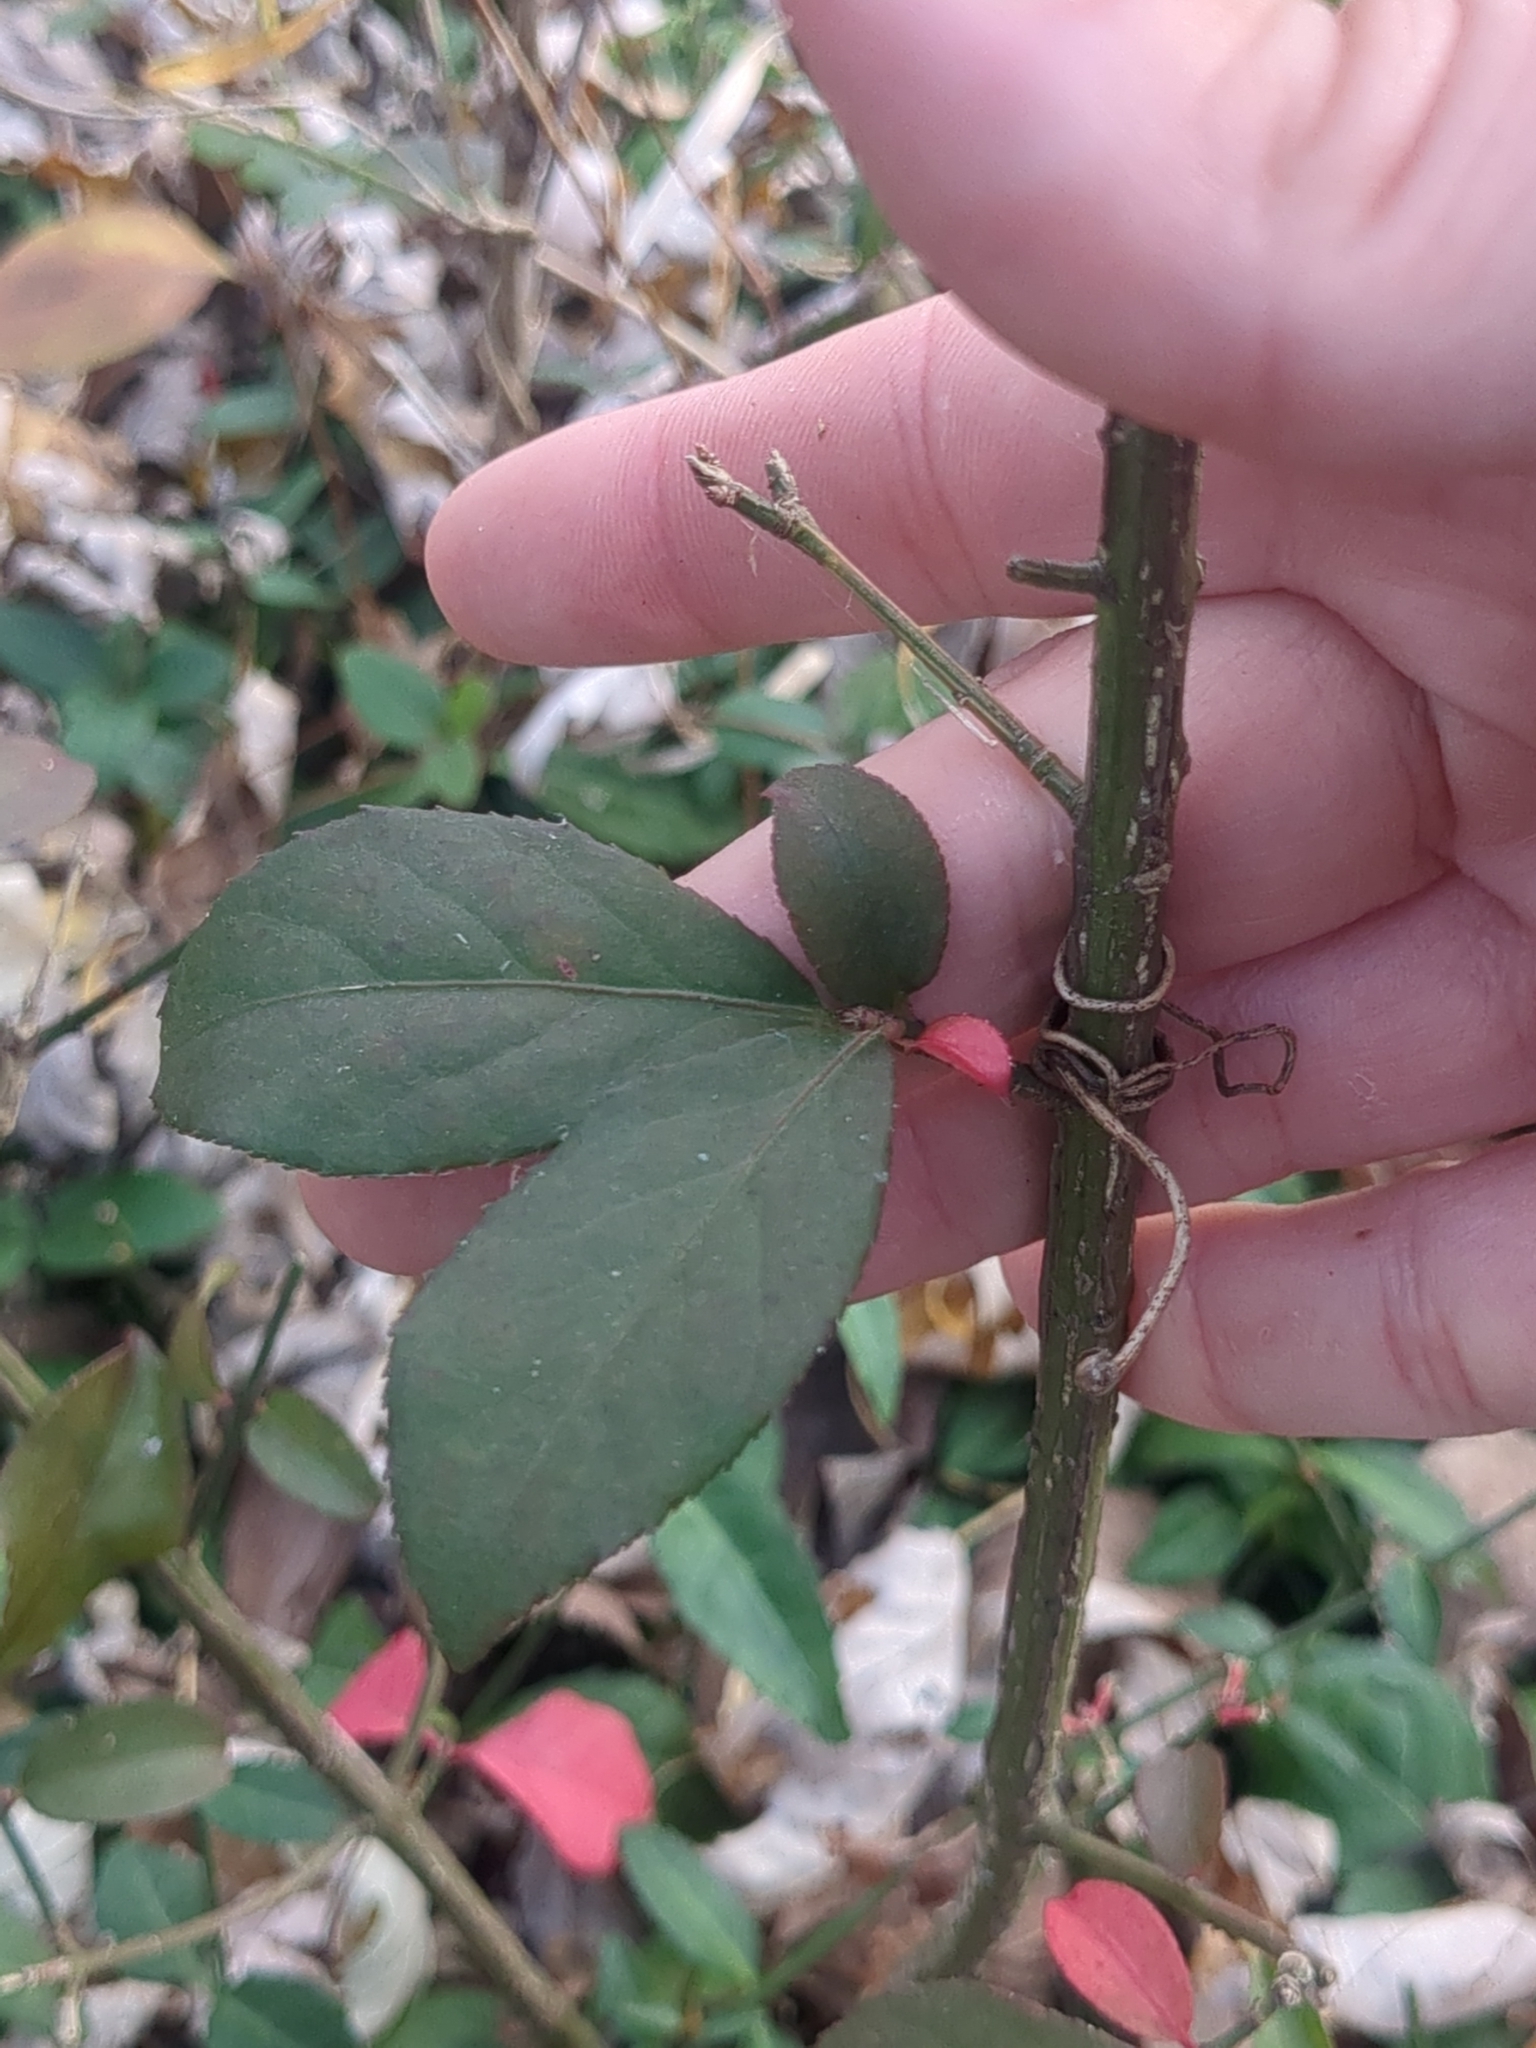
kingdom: Plantae
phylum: Tracheophyta
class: Magnoliopsida
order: Celastrales
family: Celastraceae
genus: Euonymus
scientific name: Euonymus alatus
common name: Winged euonymus
